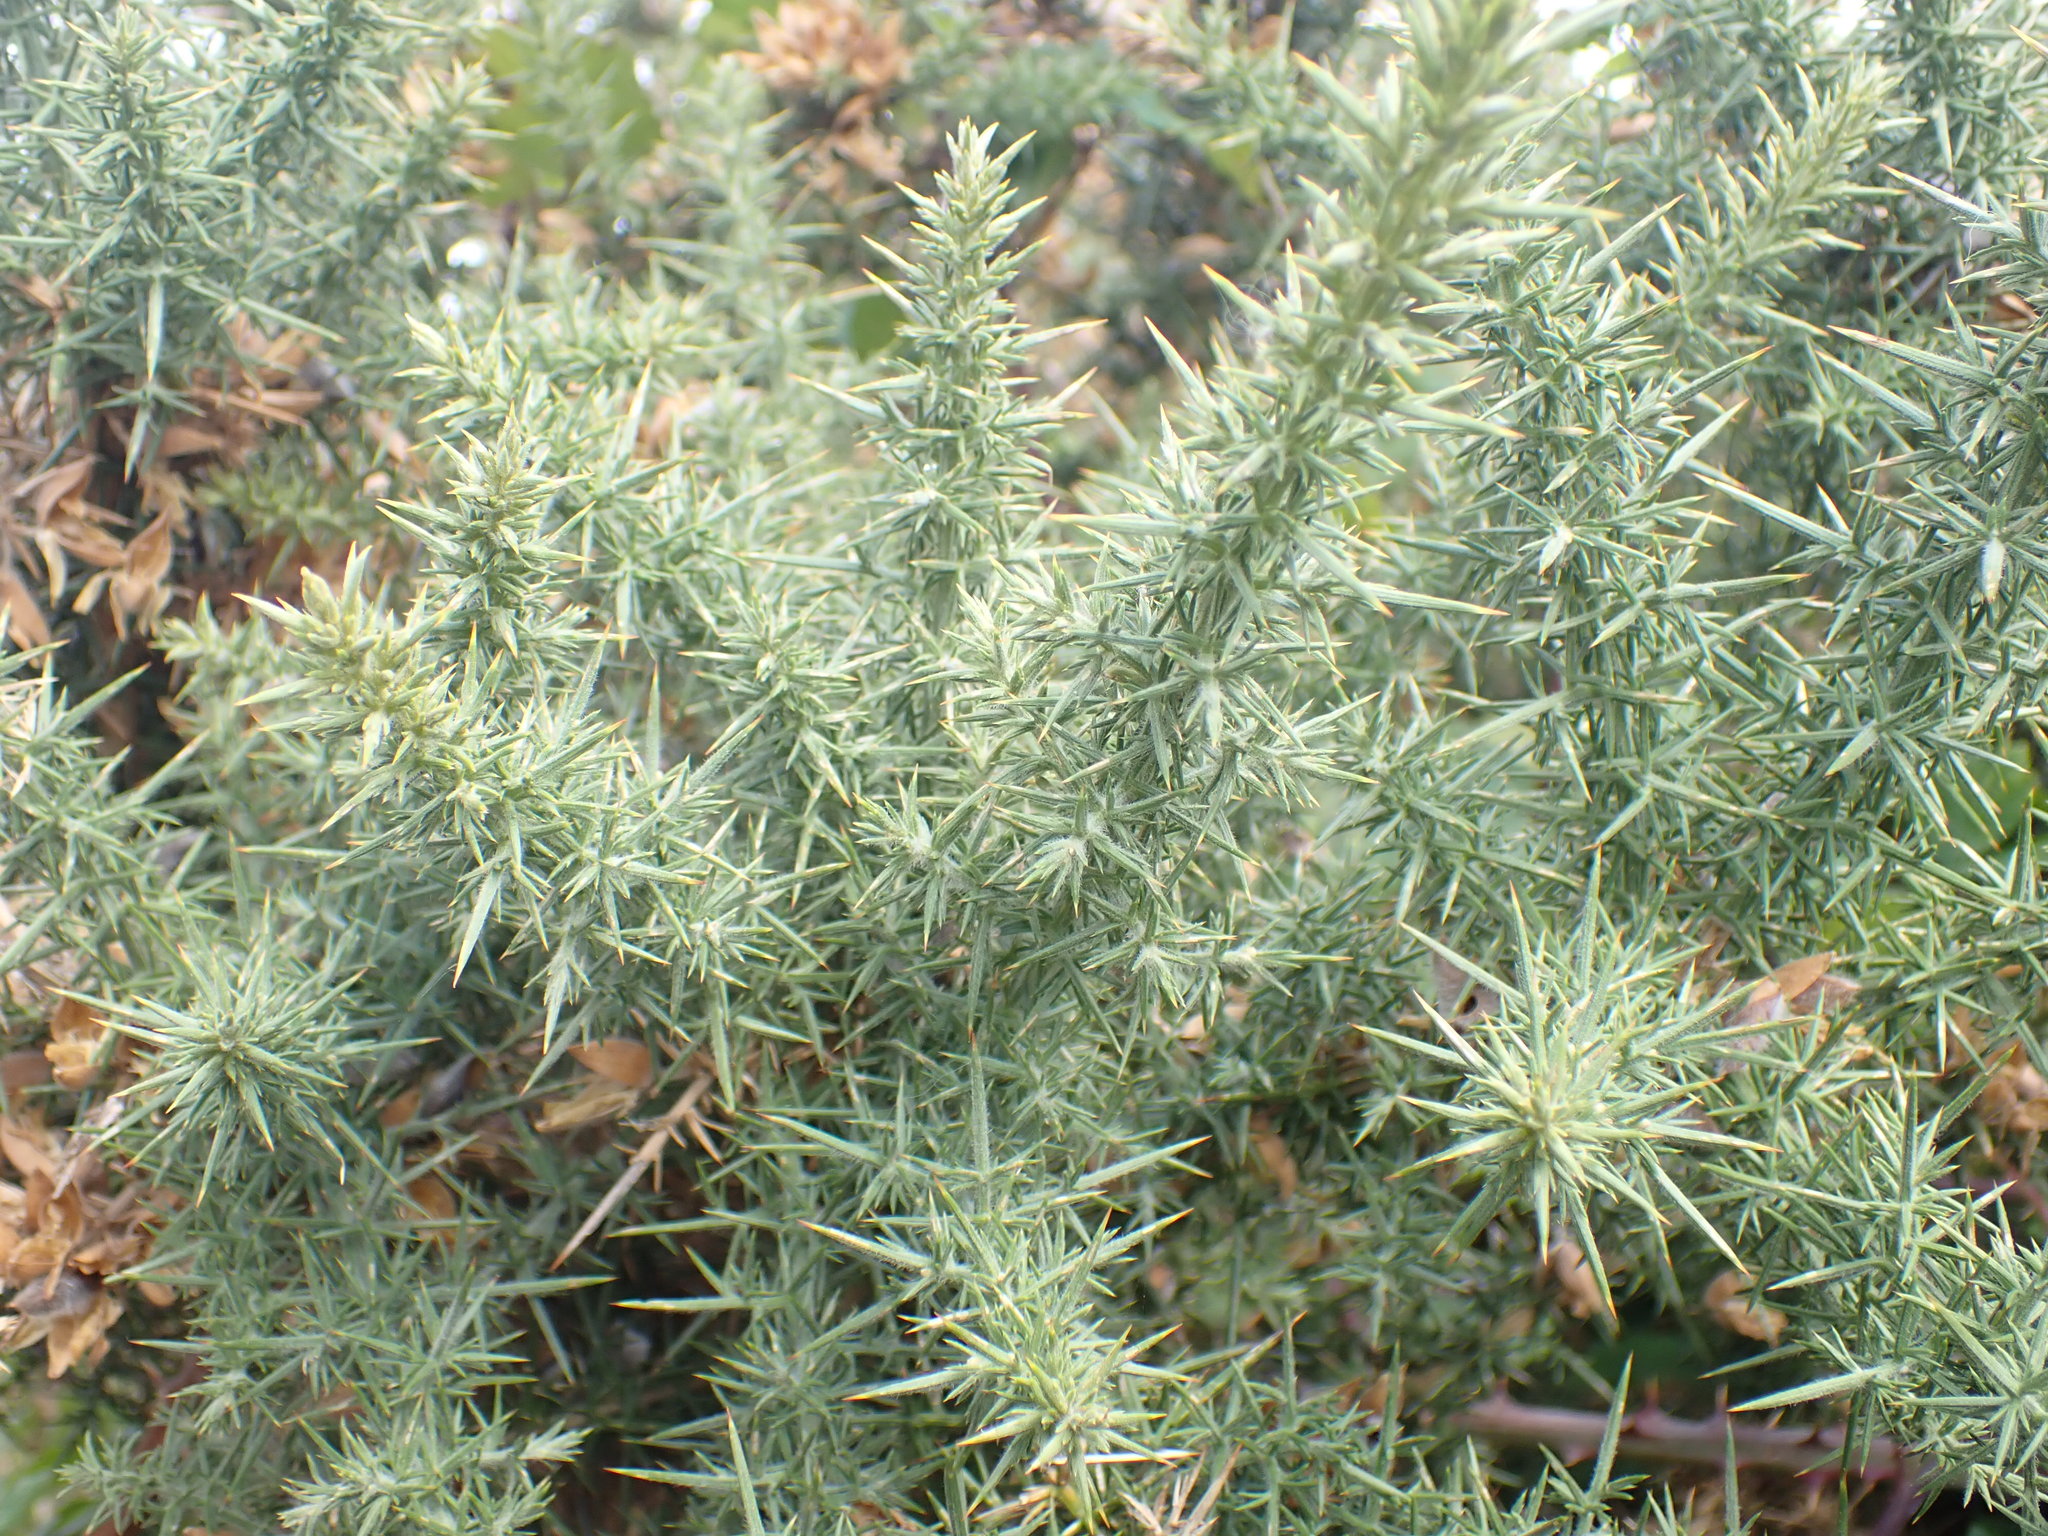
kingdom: Plantae
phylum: Tracheophyta
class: Magnoliopsida
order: Fabales
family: Fabaceae
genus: Ulex
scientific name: Ulex europaeus
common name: Common gorse
